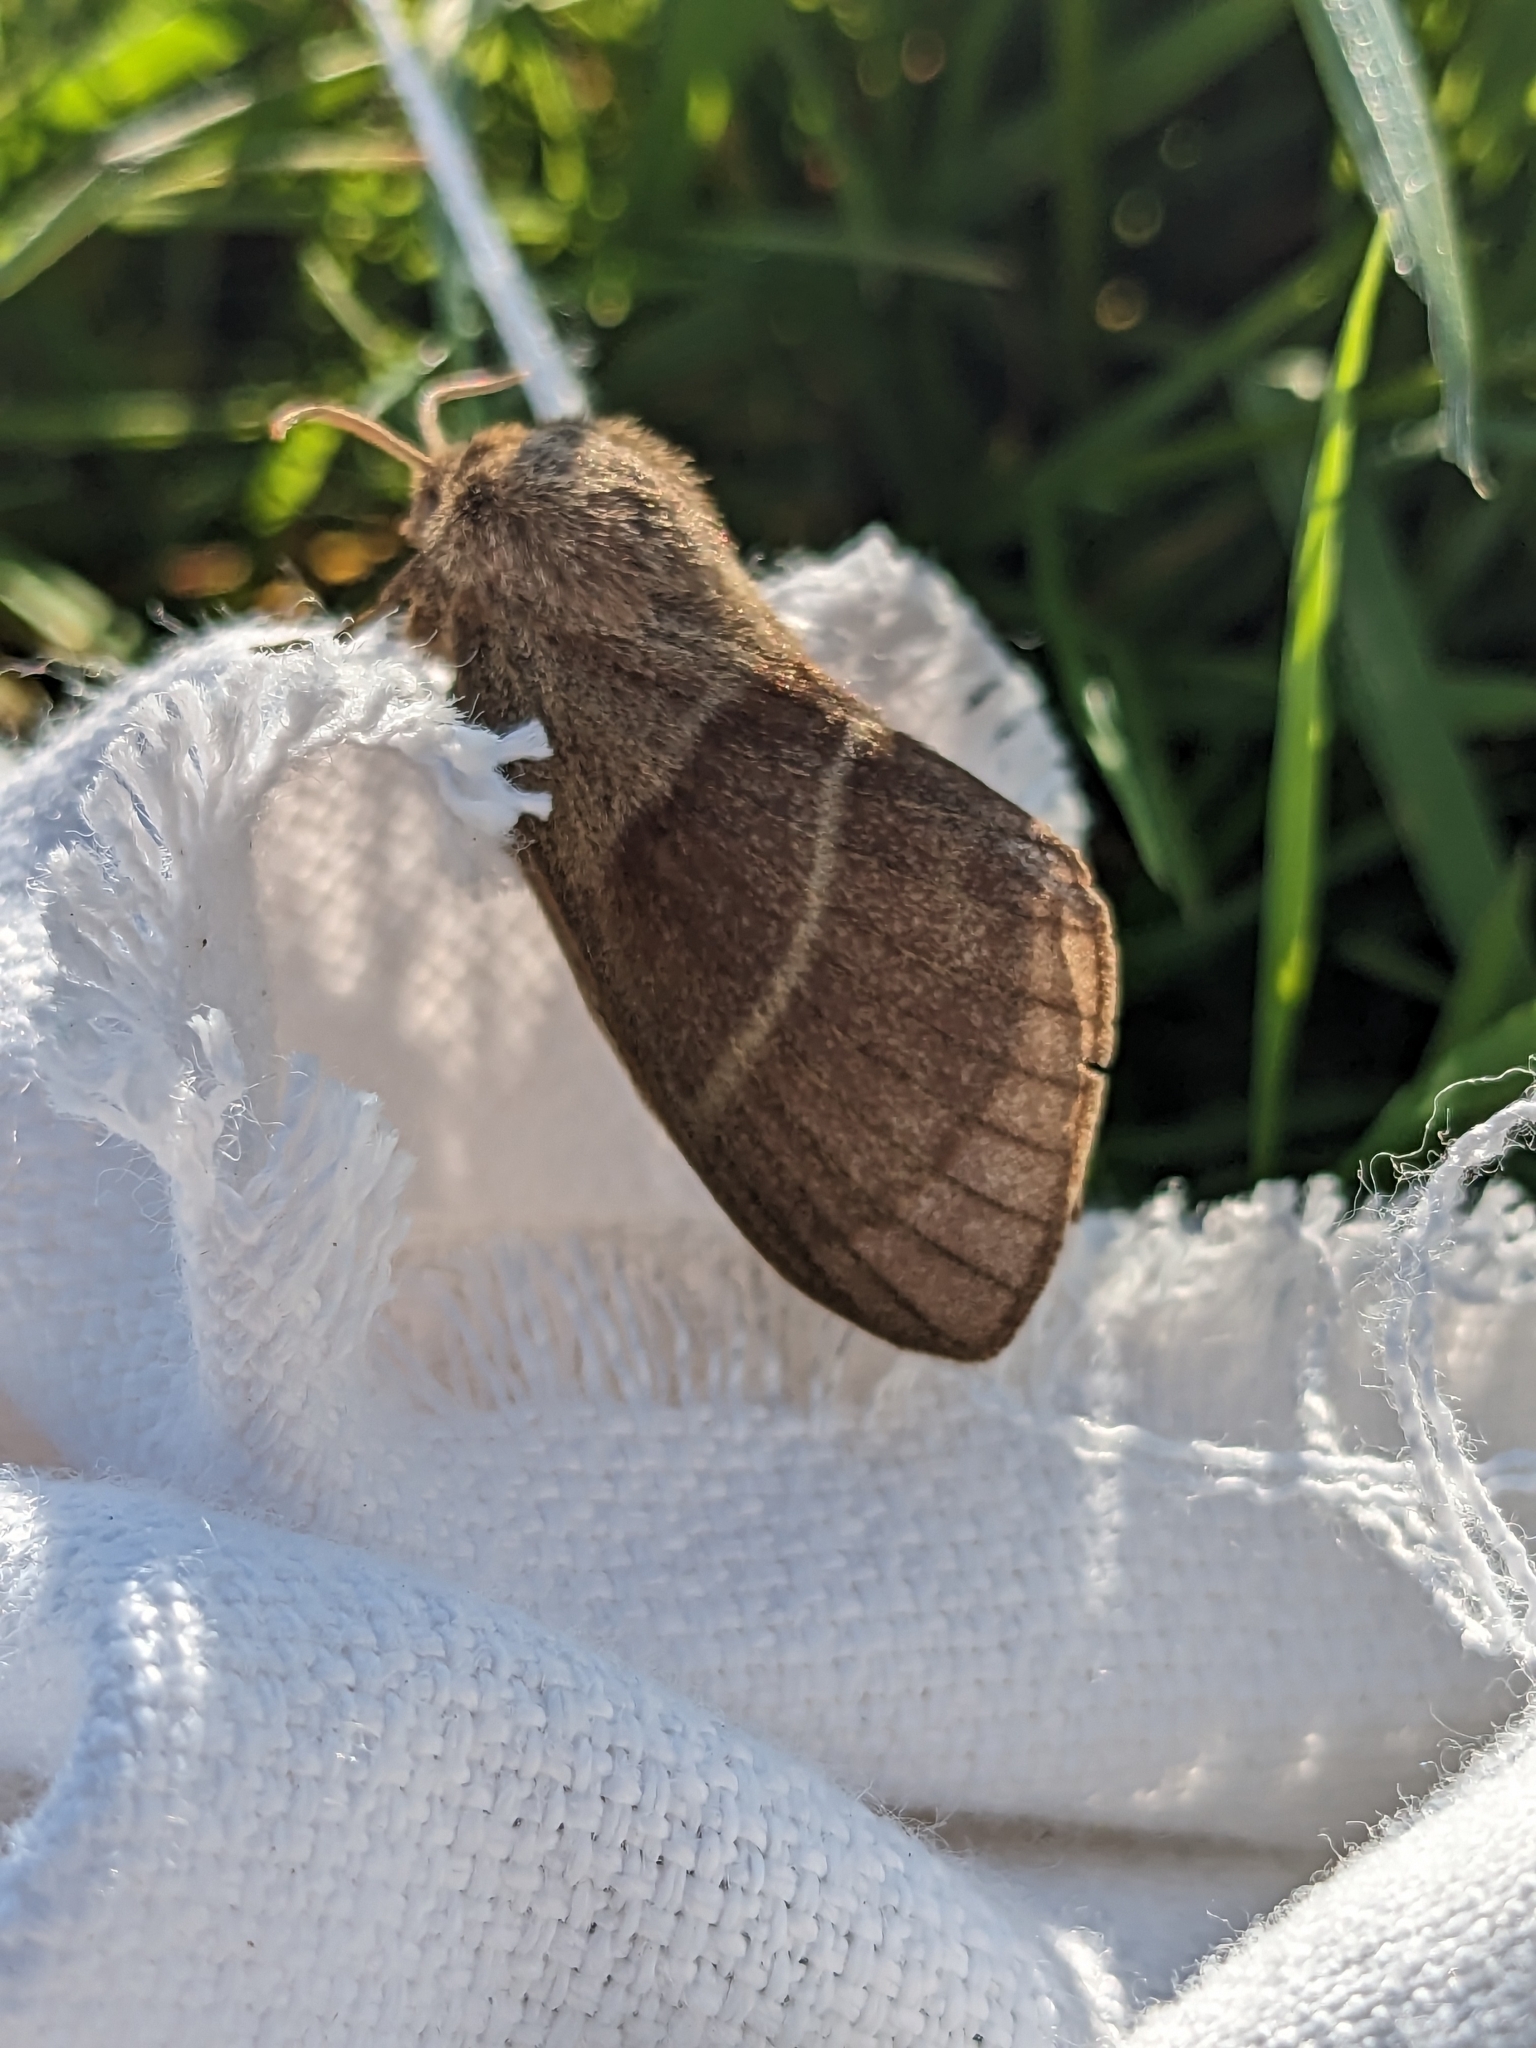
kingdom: Animalia
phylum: Arthropoda
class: Insecta
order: Lepidoptera
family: Lasiocampidae
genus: Macrothylacia
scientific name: Macrothylacia rubi
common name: Fox moth
